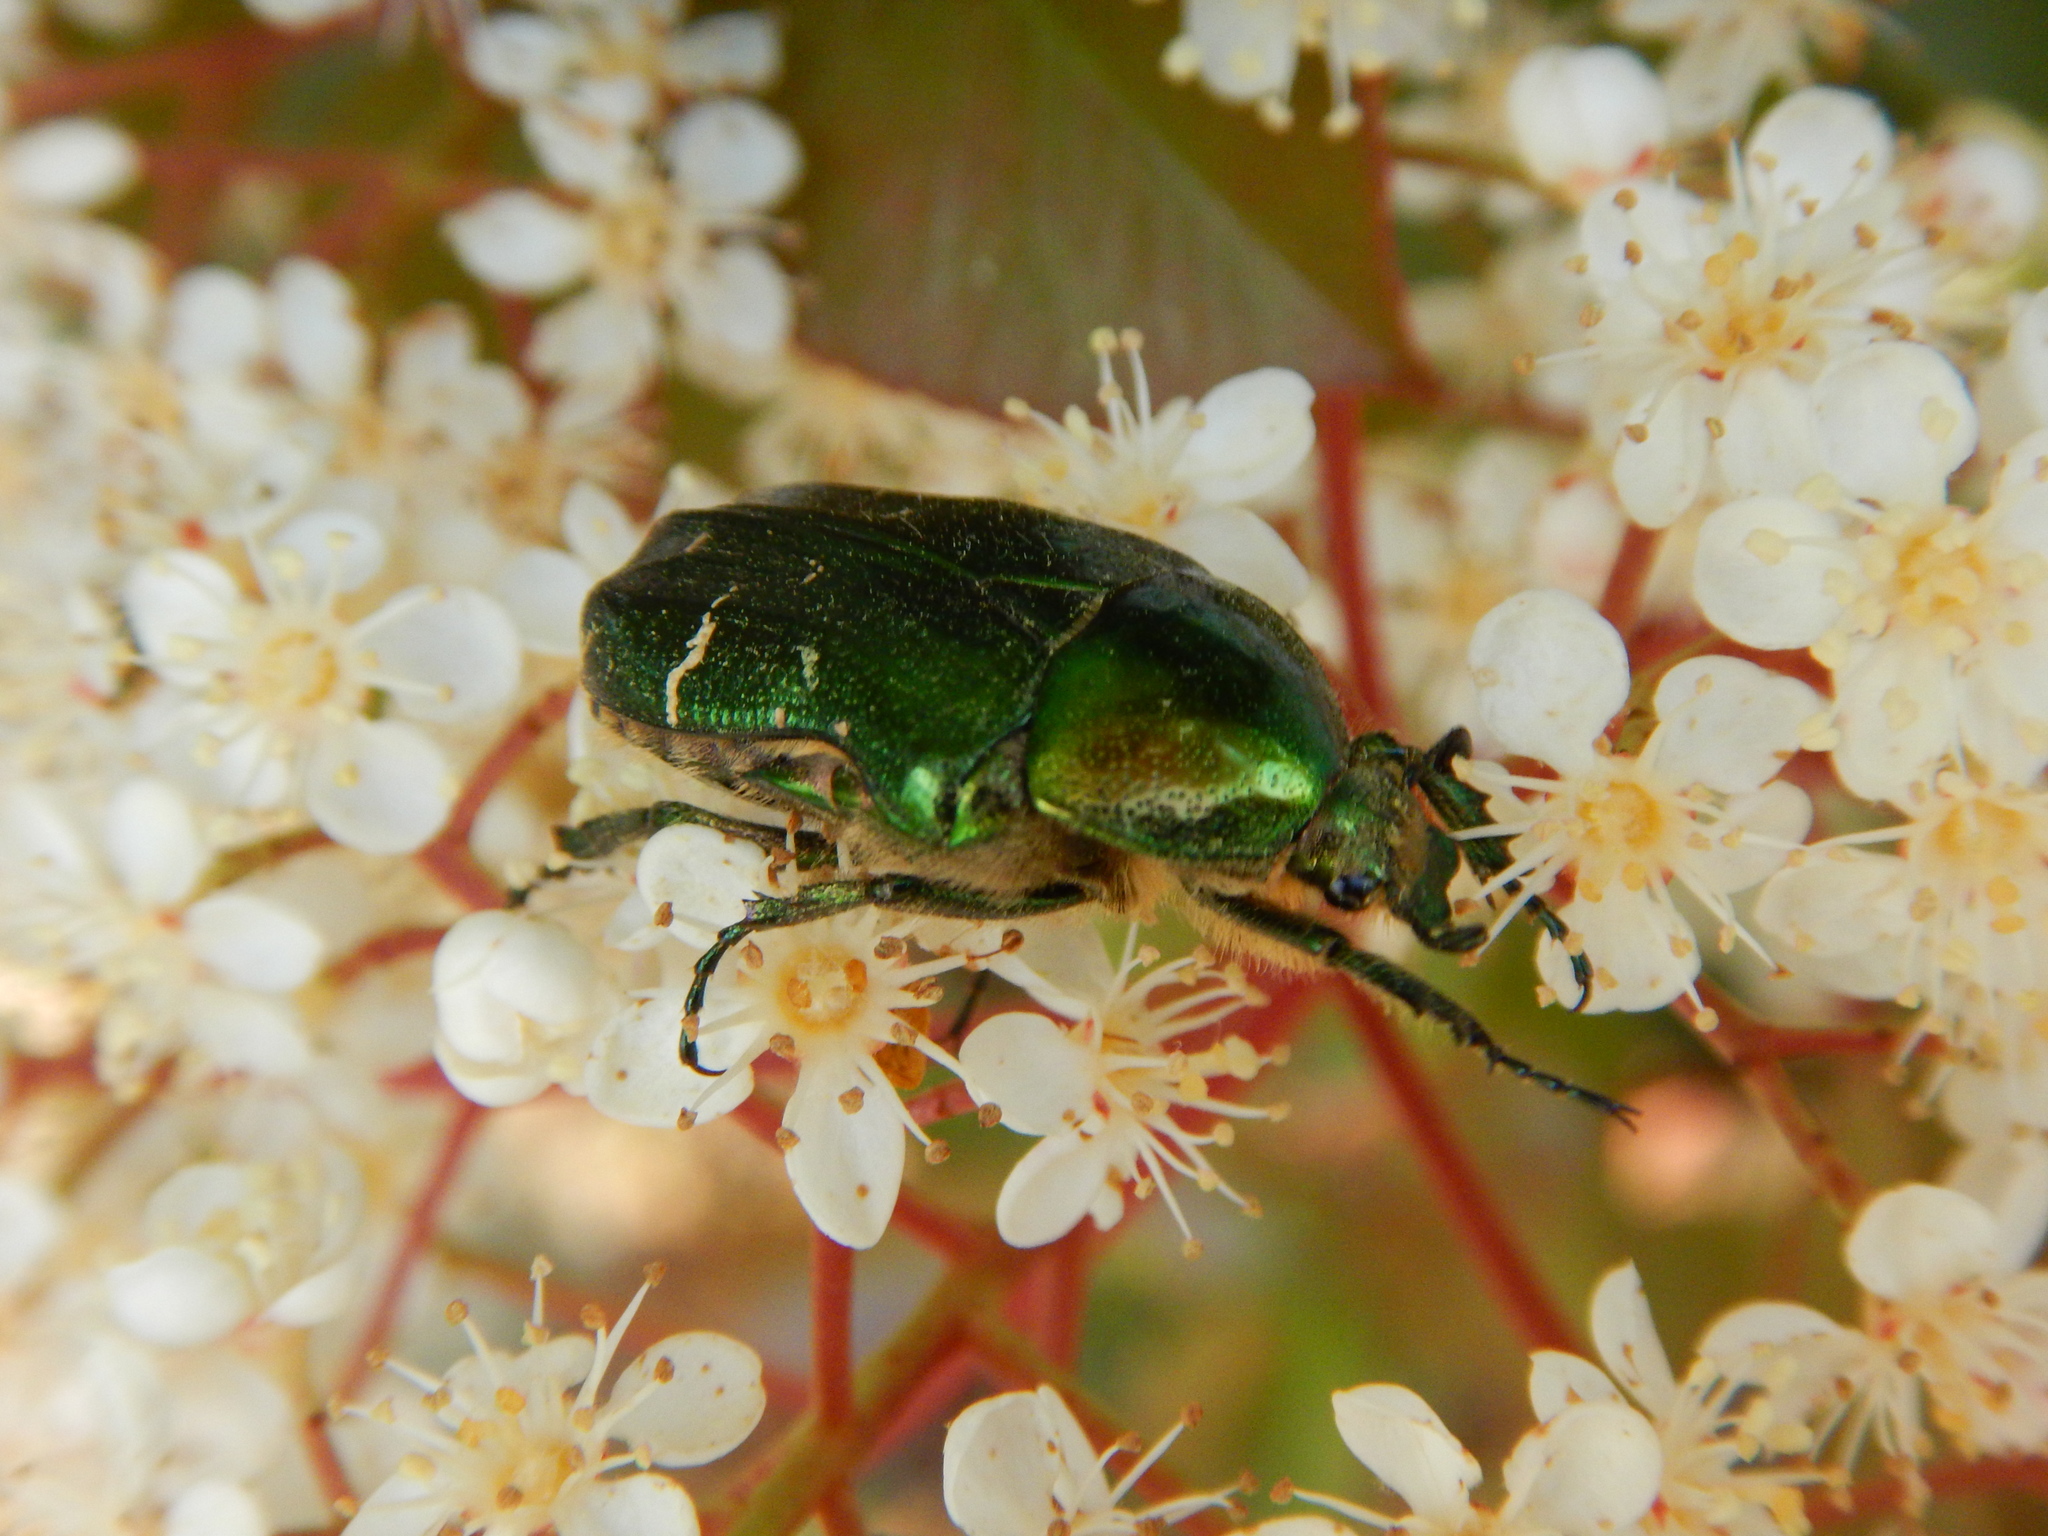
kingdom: Animalia
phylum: Arthropoda
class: Insecta
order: Coleoptera
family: Scarabaeidae
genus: Cetonia
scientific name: Cetonia aurata
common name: Rose chafer
